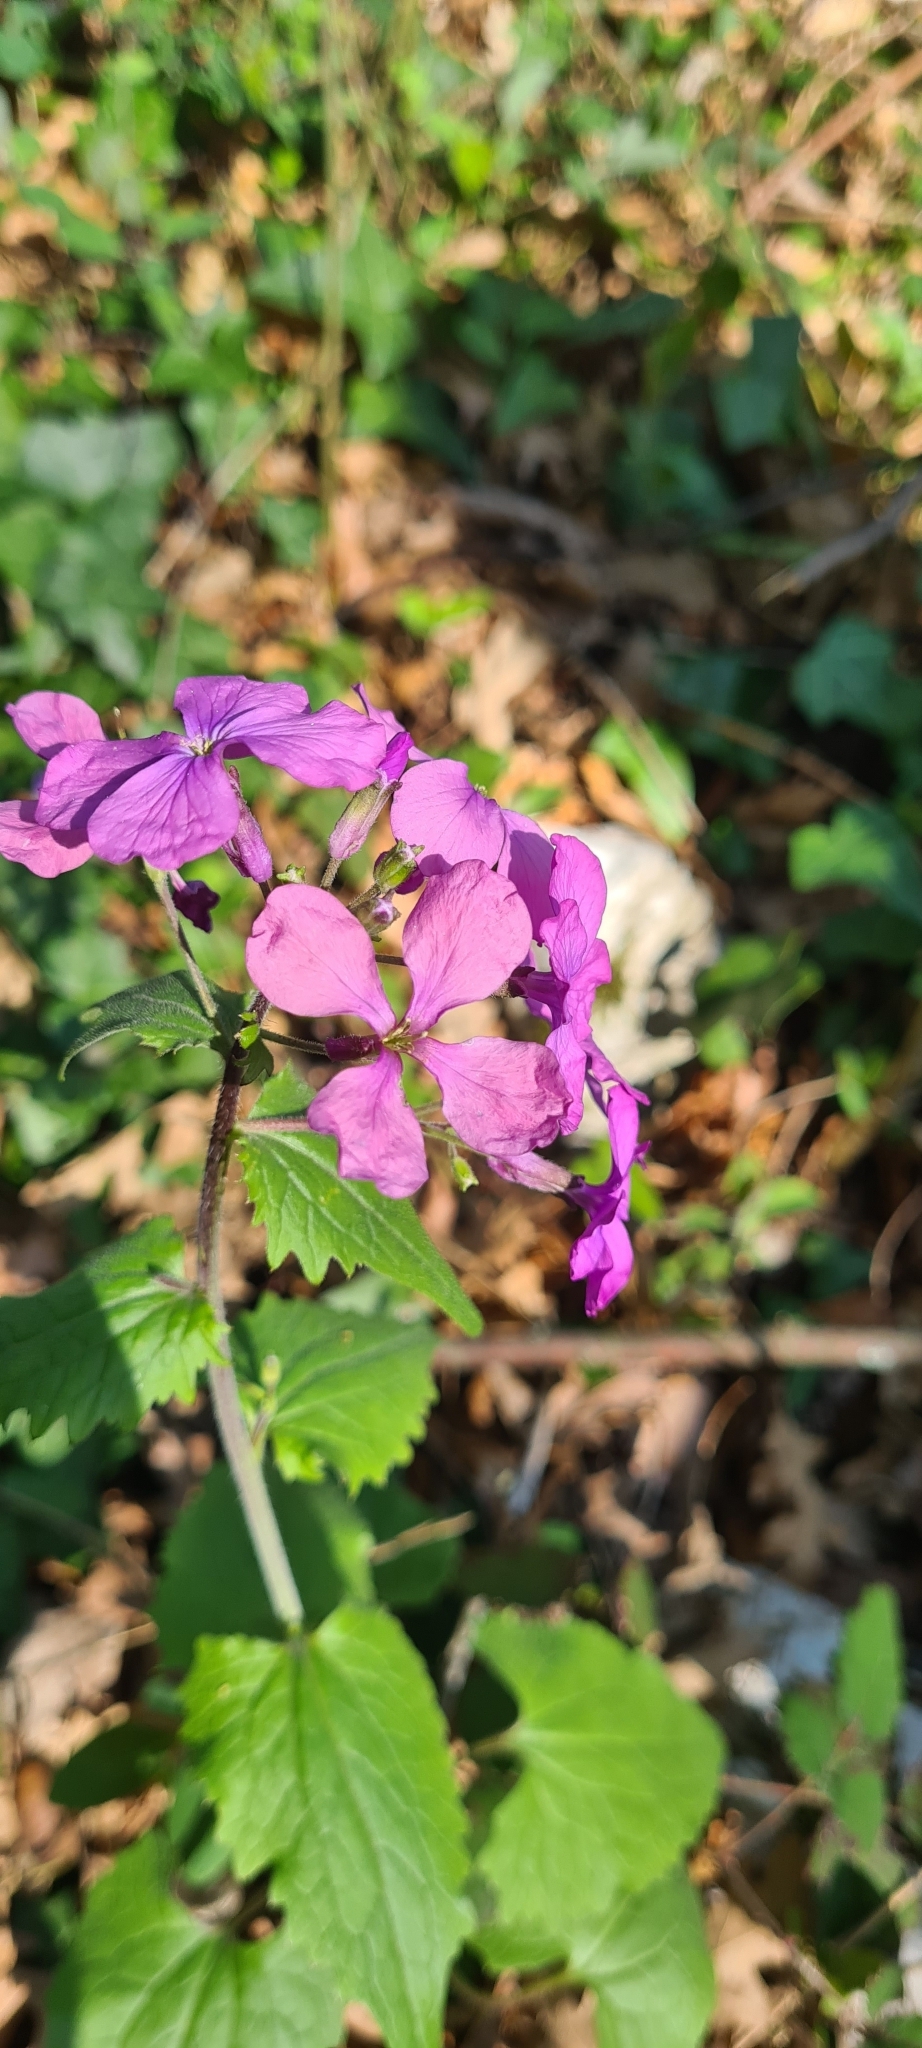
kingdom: Plantae
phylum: Tracheophyta
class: Magnoliopsida
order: Brassicales
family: Brassicaceae
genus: Lunaria
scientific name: Lunaria annua
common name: Honesty
